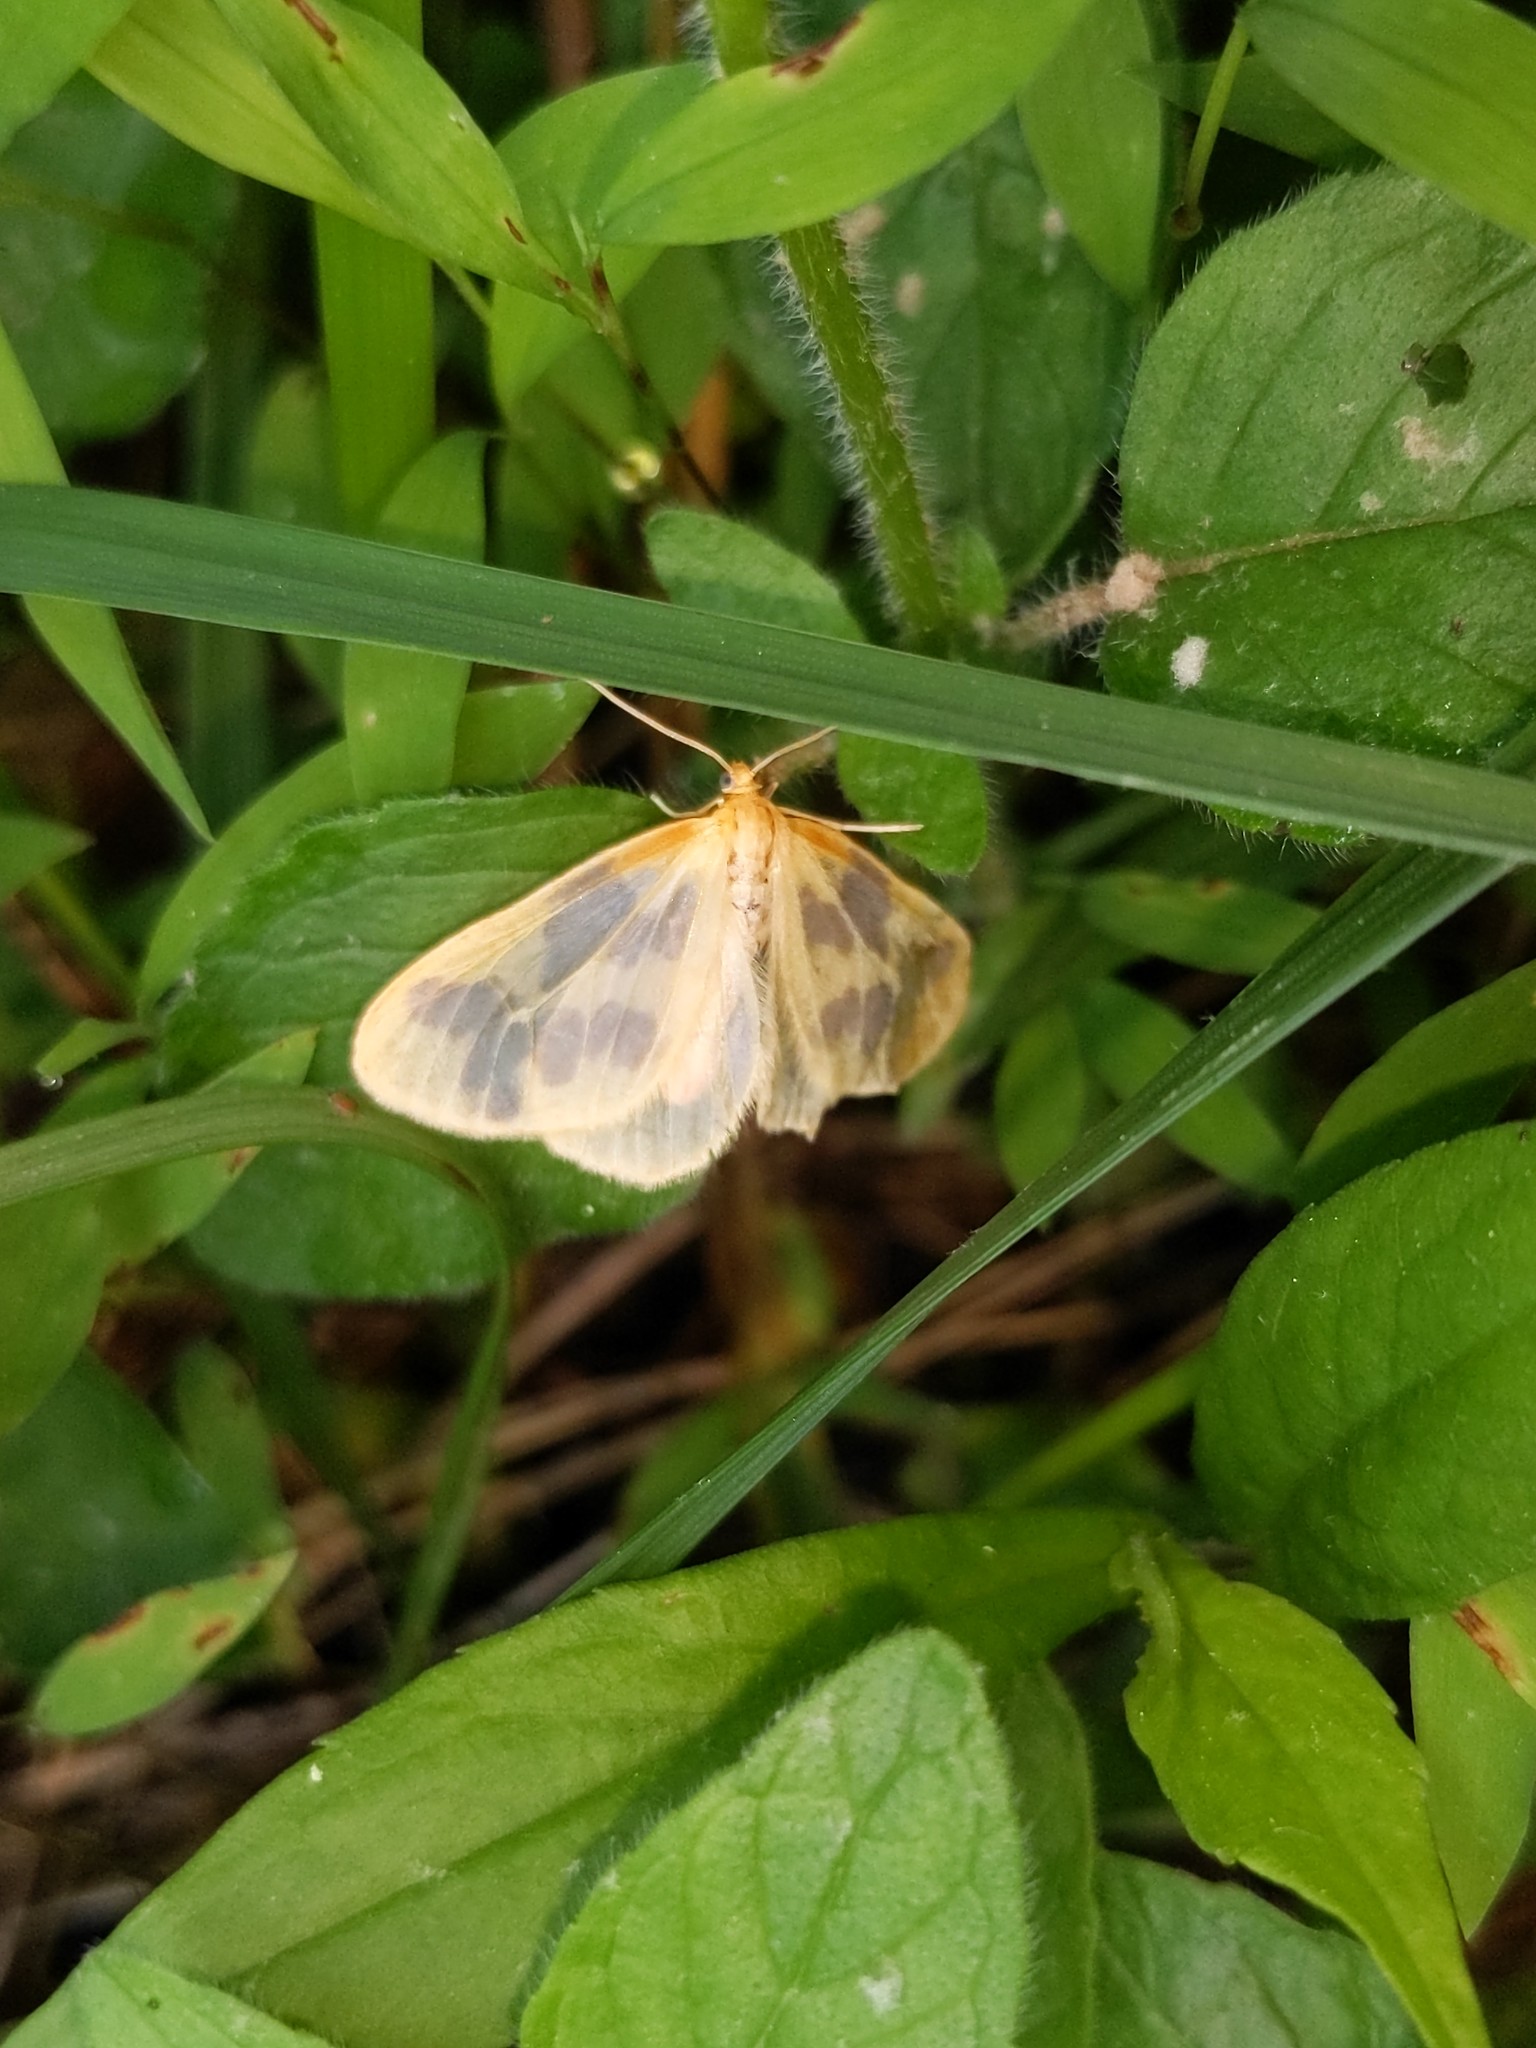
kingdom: Animalia
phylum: Arthropoda
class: Insecta
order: Lepidoptera
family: Geometridae
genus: Eubaphe
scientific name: Eubaphe mendica
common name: Beggar
